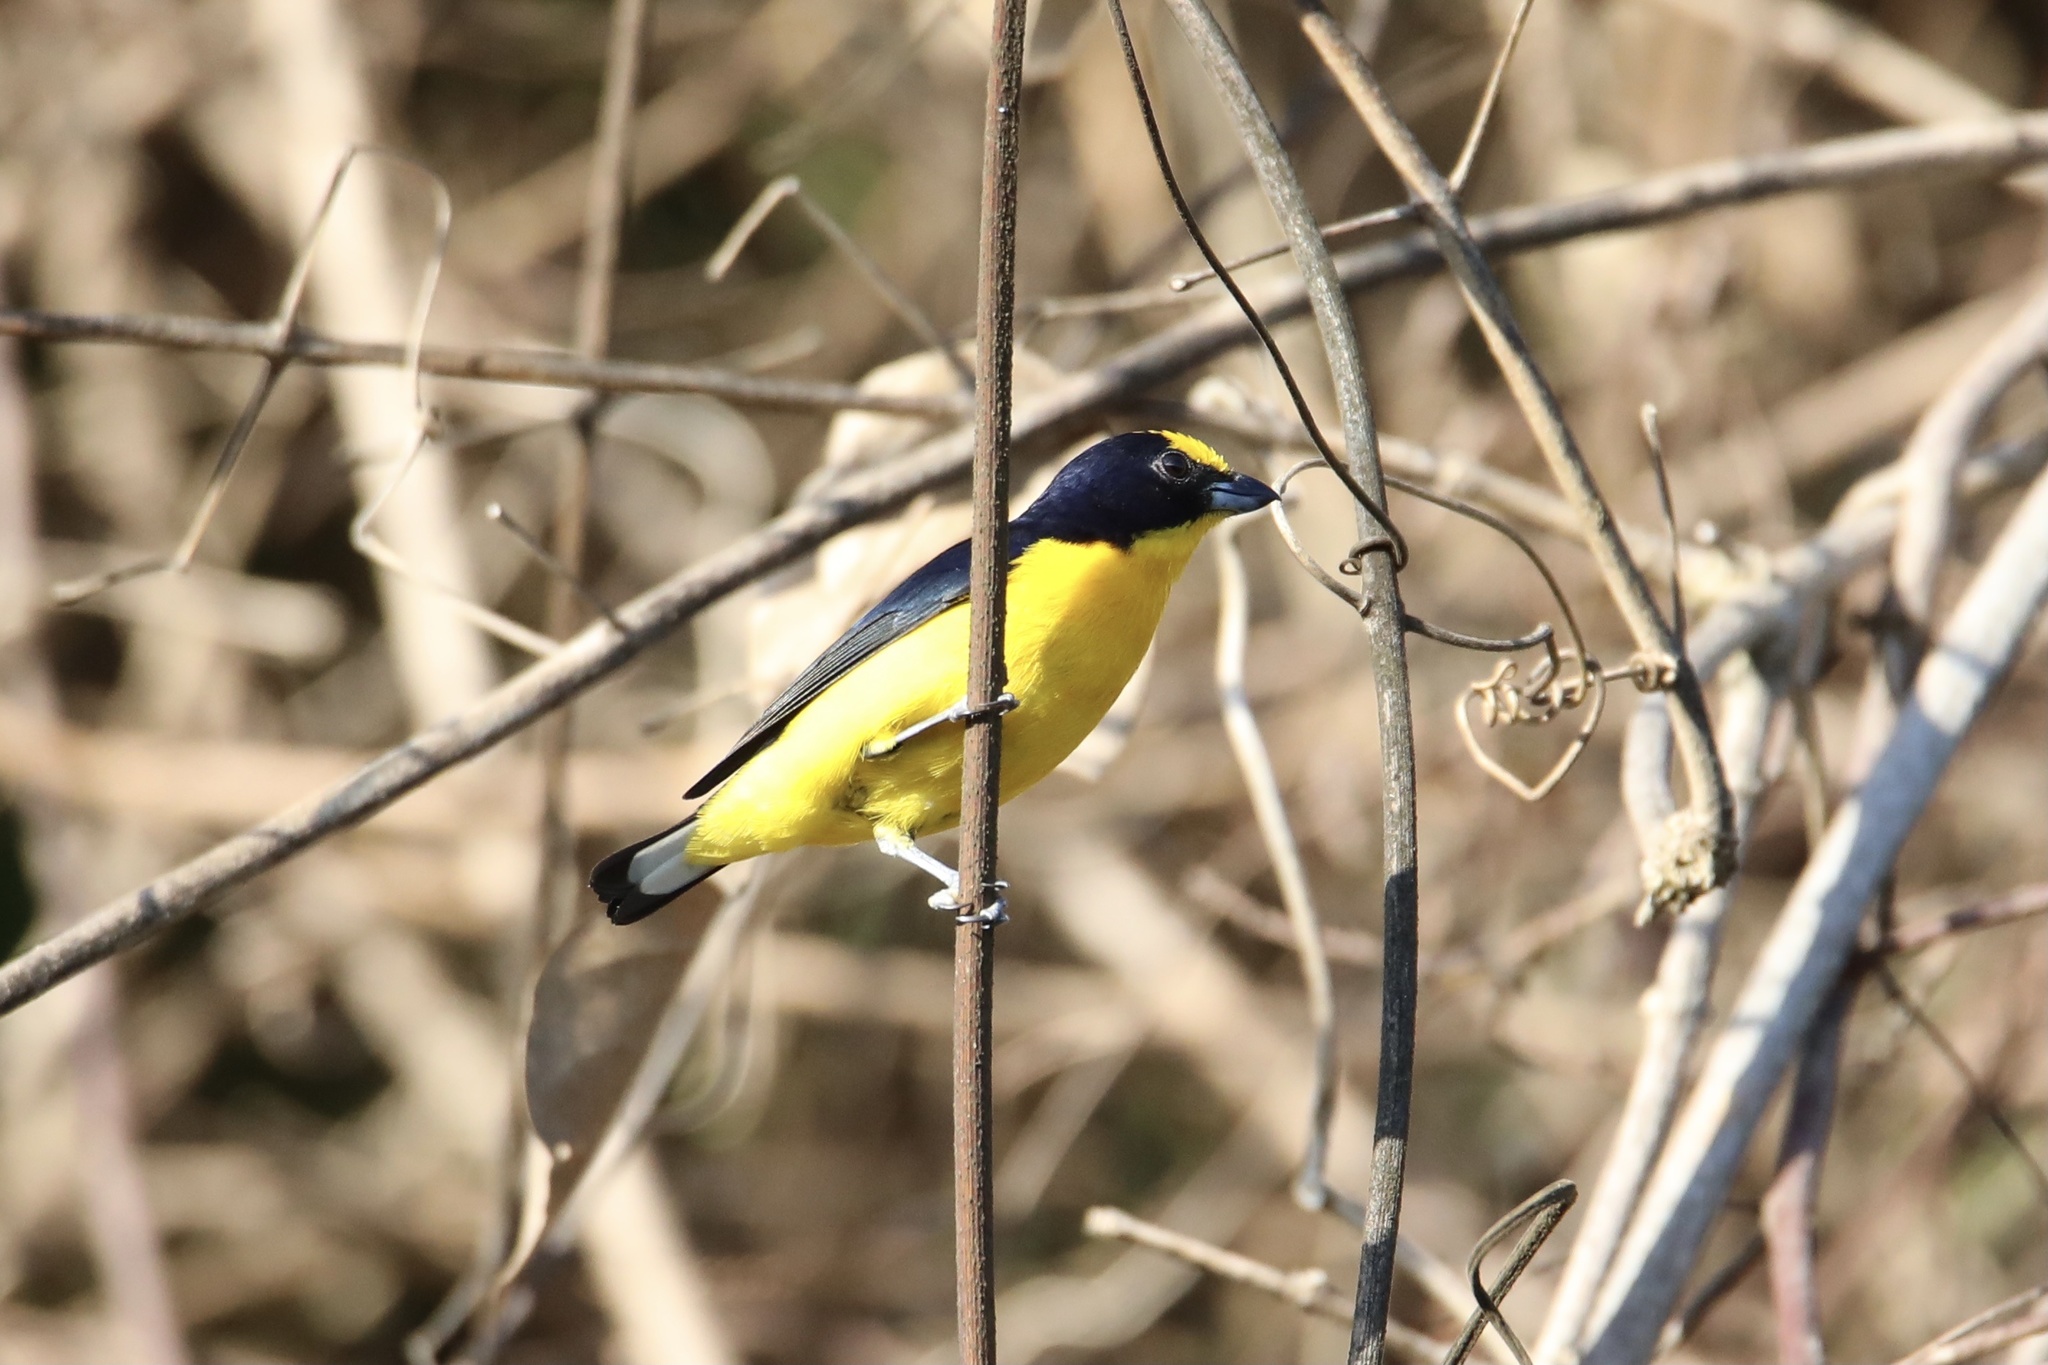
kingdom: Animalia
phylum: Chordata
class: Aves
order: Passeriformes
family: Fringillidae
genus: Euphonia
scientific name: Euphonia laniirostris
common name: Thick-billed euphonia
